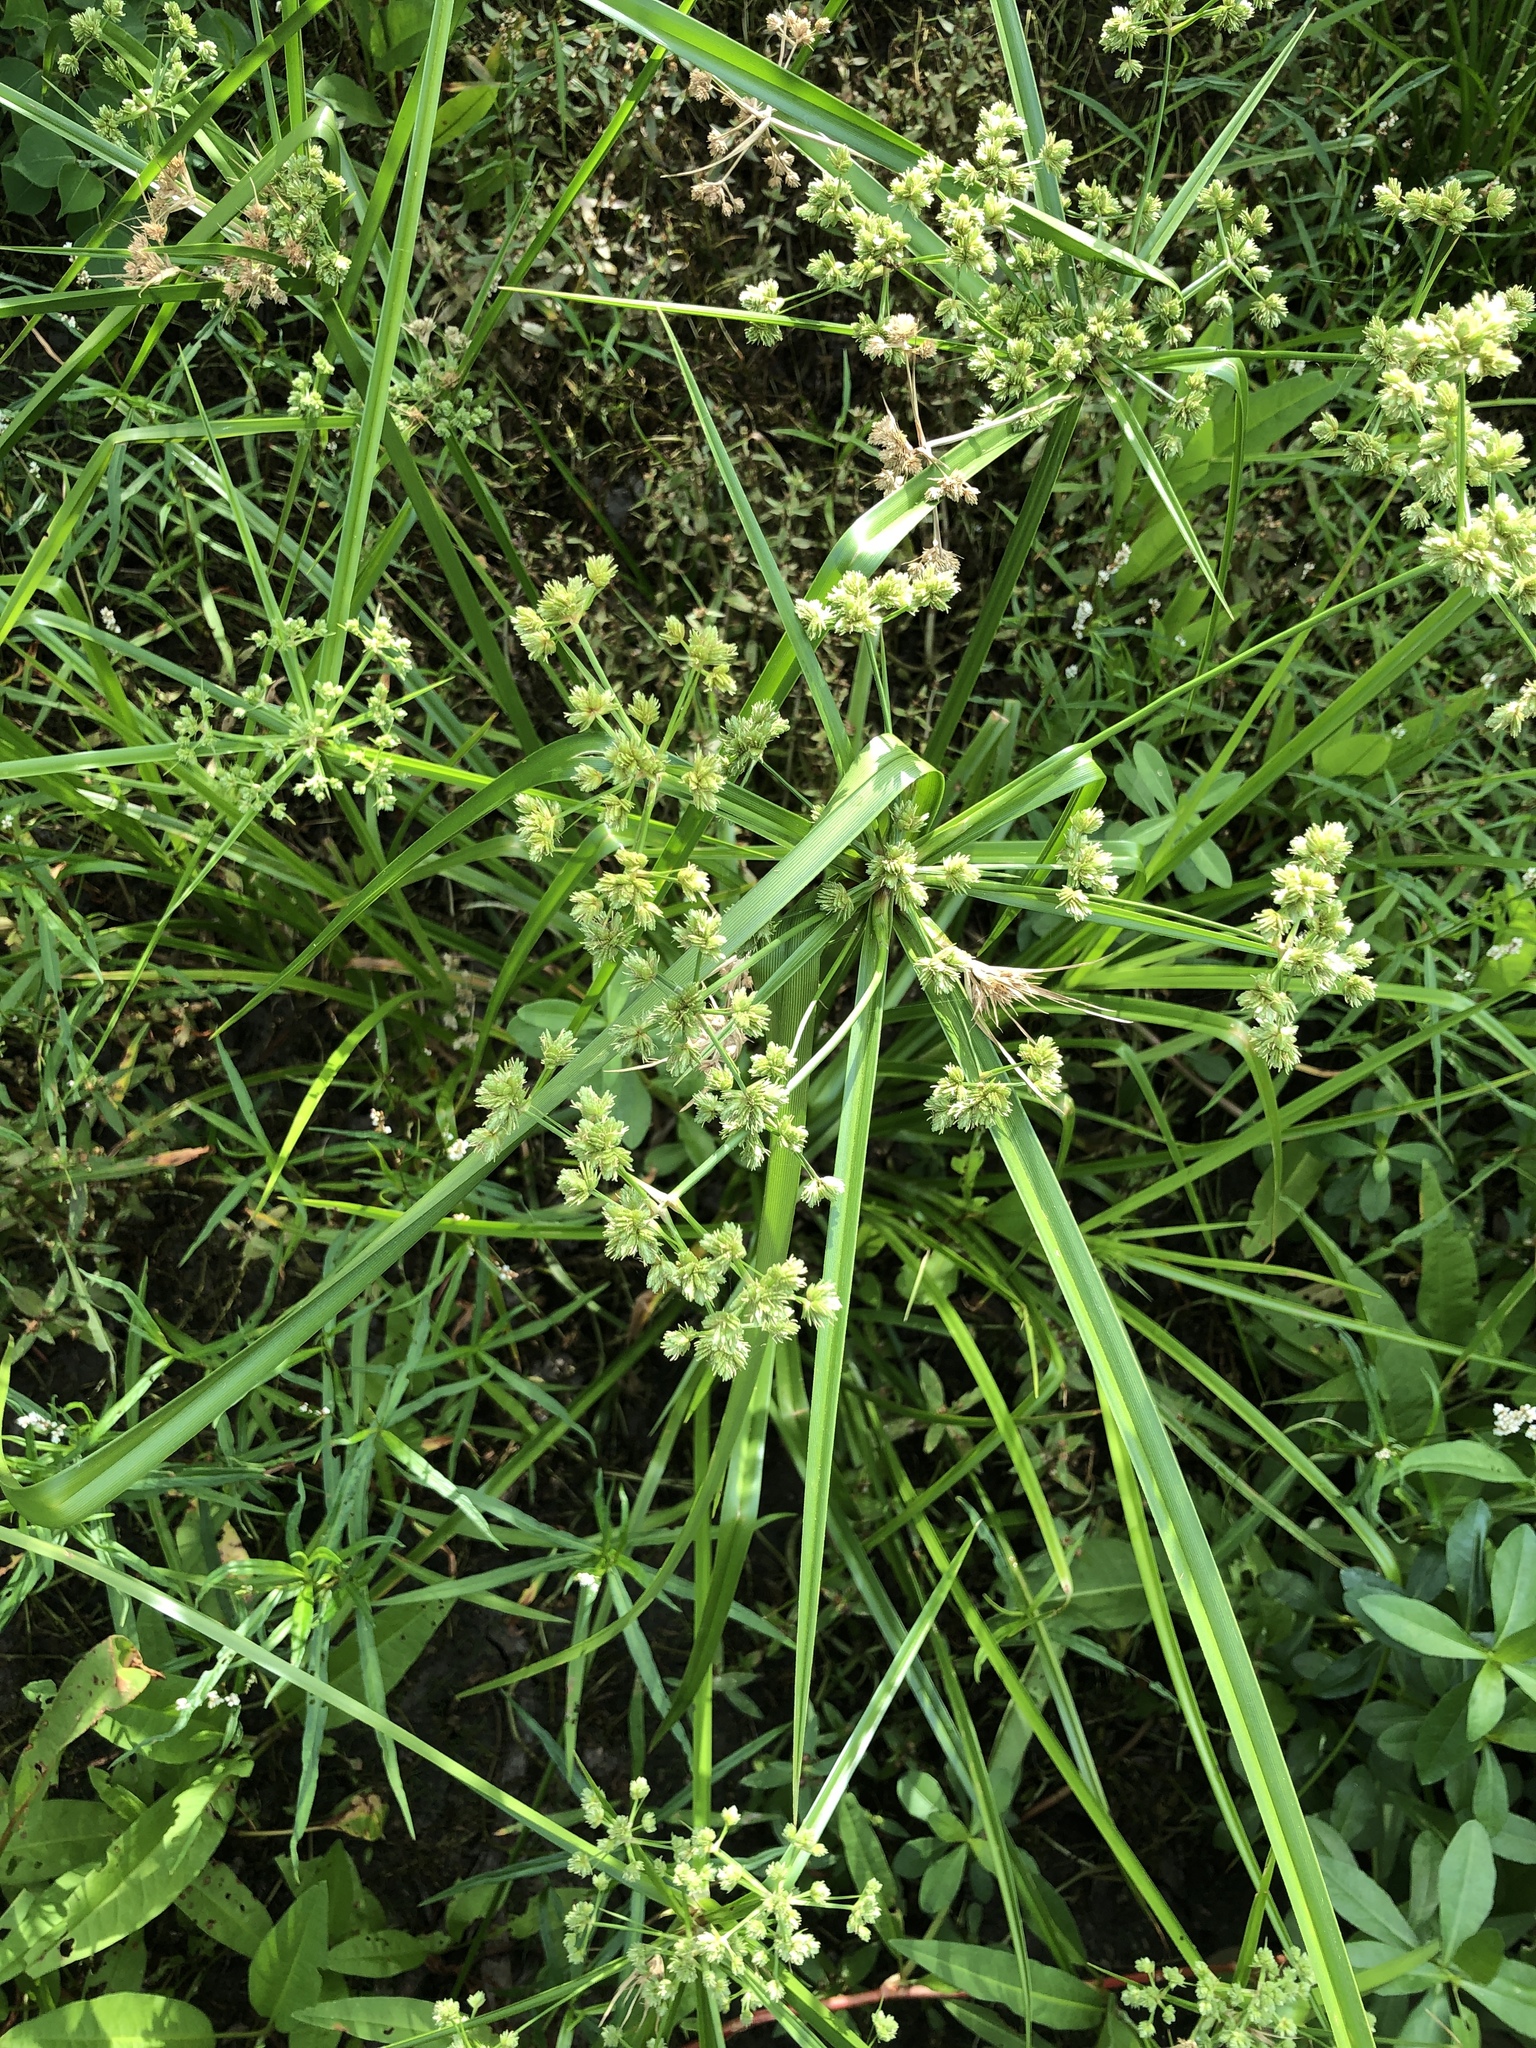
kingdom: Plantae
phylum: Tracheophyta
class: Liliopsida
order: Poales
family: Cyperaceae
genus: Cyperus
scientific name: Cyperus virens
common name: Green flatsedge
